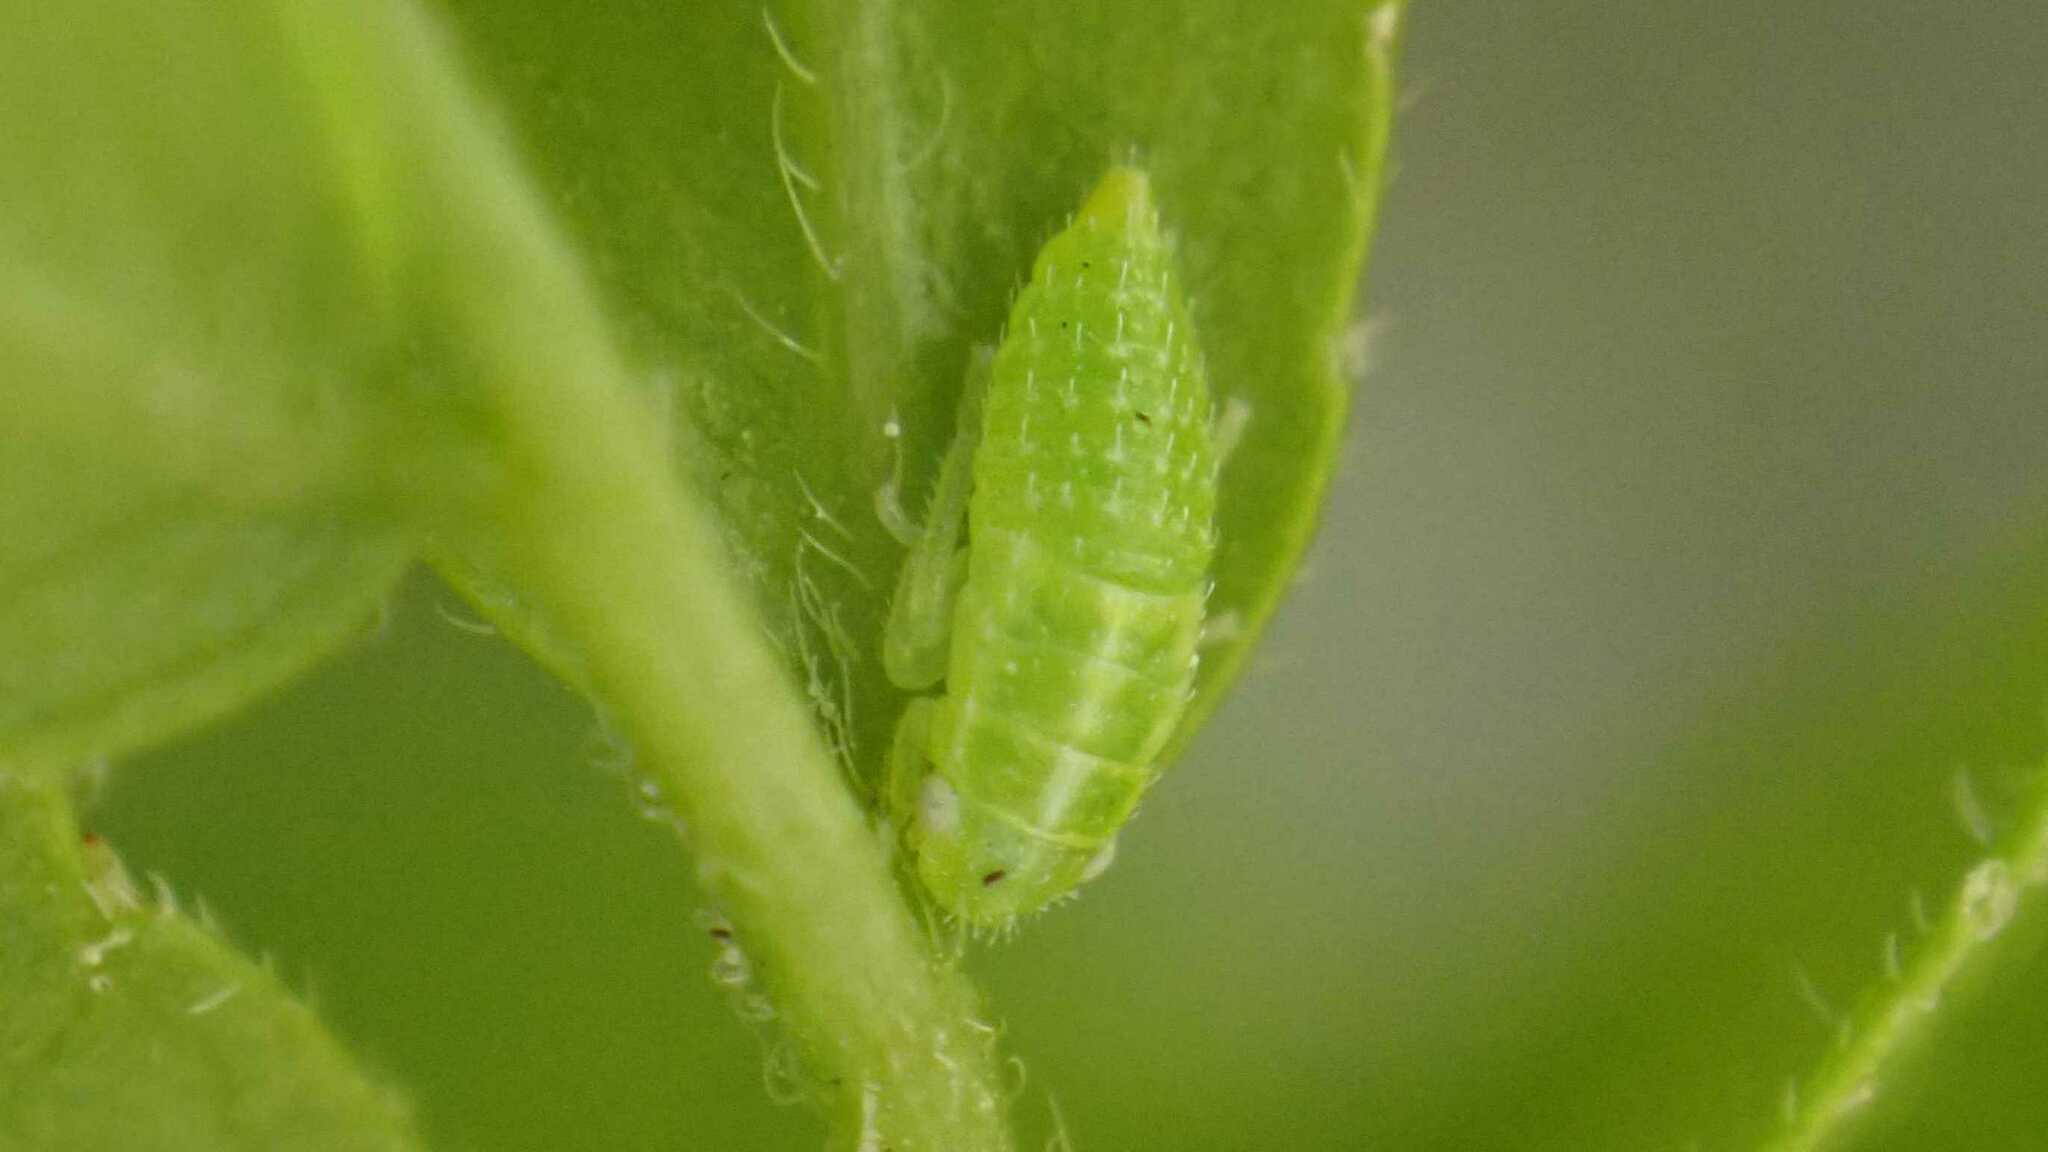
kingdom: Animalia
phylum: Arthropoda
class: Insecta
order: Hemiptera
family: Cicadellidae
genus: Stragania
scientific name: Stragania apicalis
